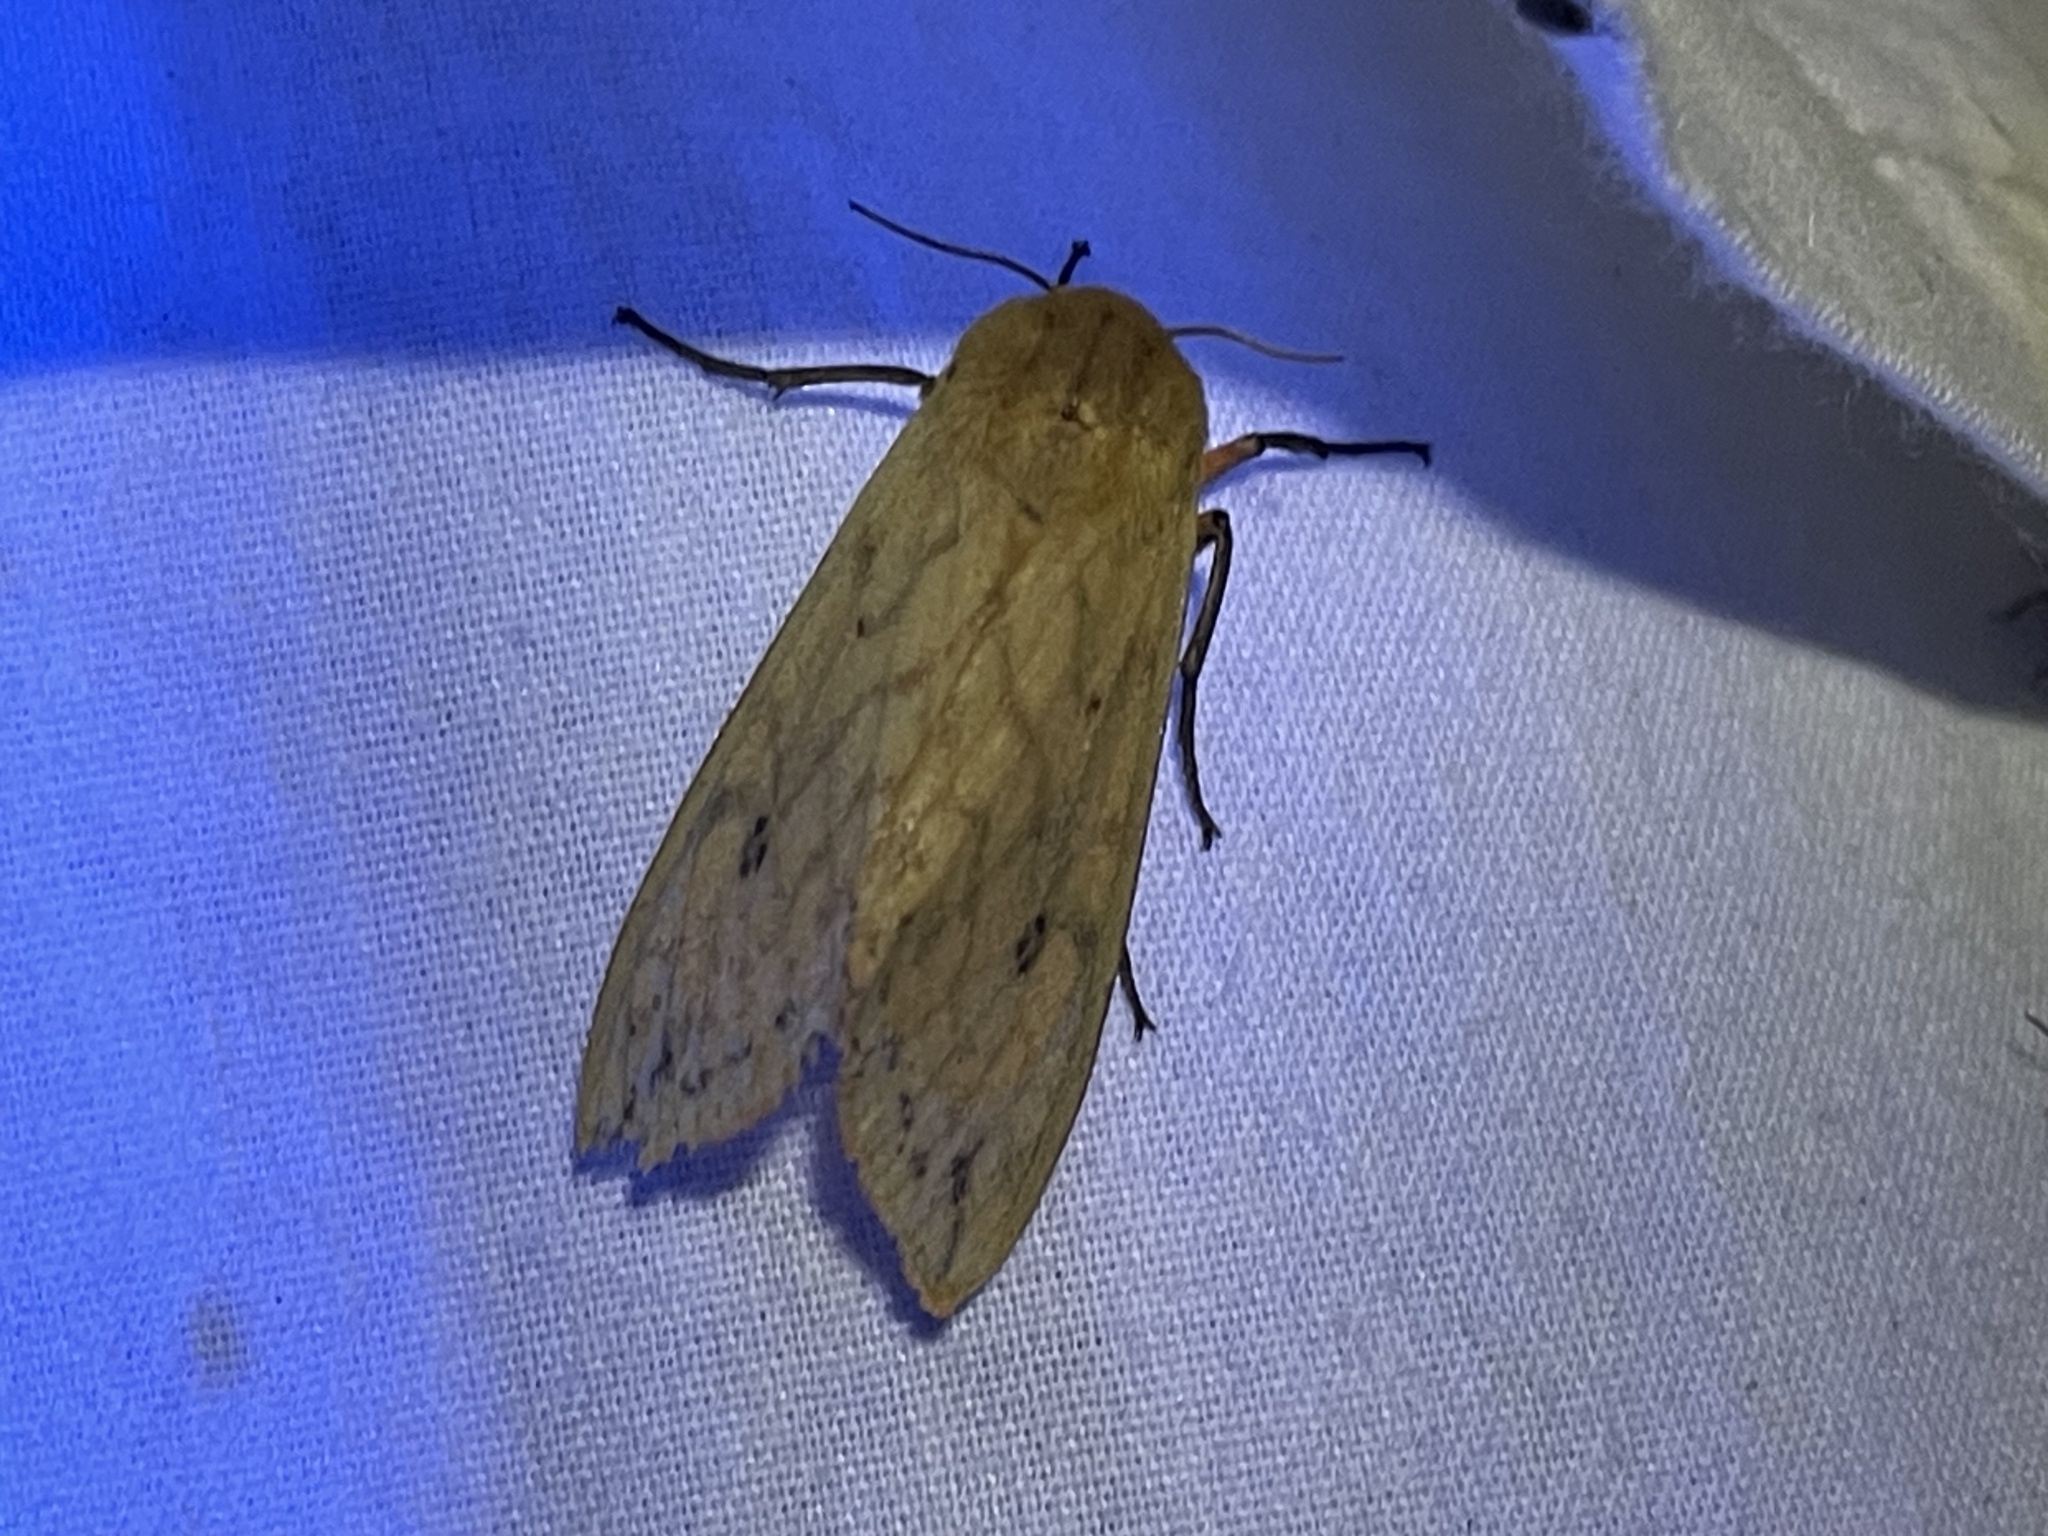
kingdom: Animalia
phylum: Arthropoda
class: Insecta
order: Lepidoptera
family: Erebidae
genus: Pyrrharctia
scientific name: Pyrrharctia isabella
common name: Isabella tiger moth
